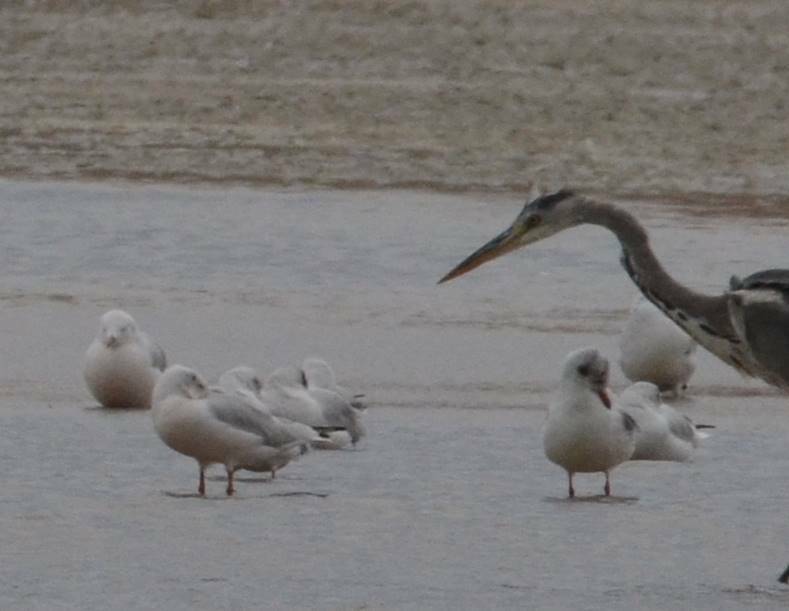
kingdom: Animalia
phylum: Chordata
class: Aves
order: Pelecaniformes
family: Ardeidae
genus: Ardea
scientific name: Ardea cinerea
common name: Grey heron
